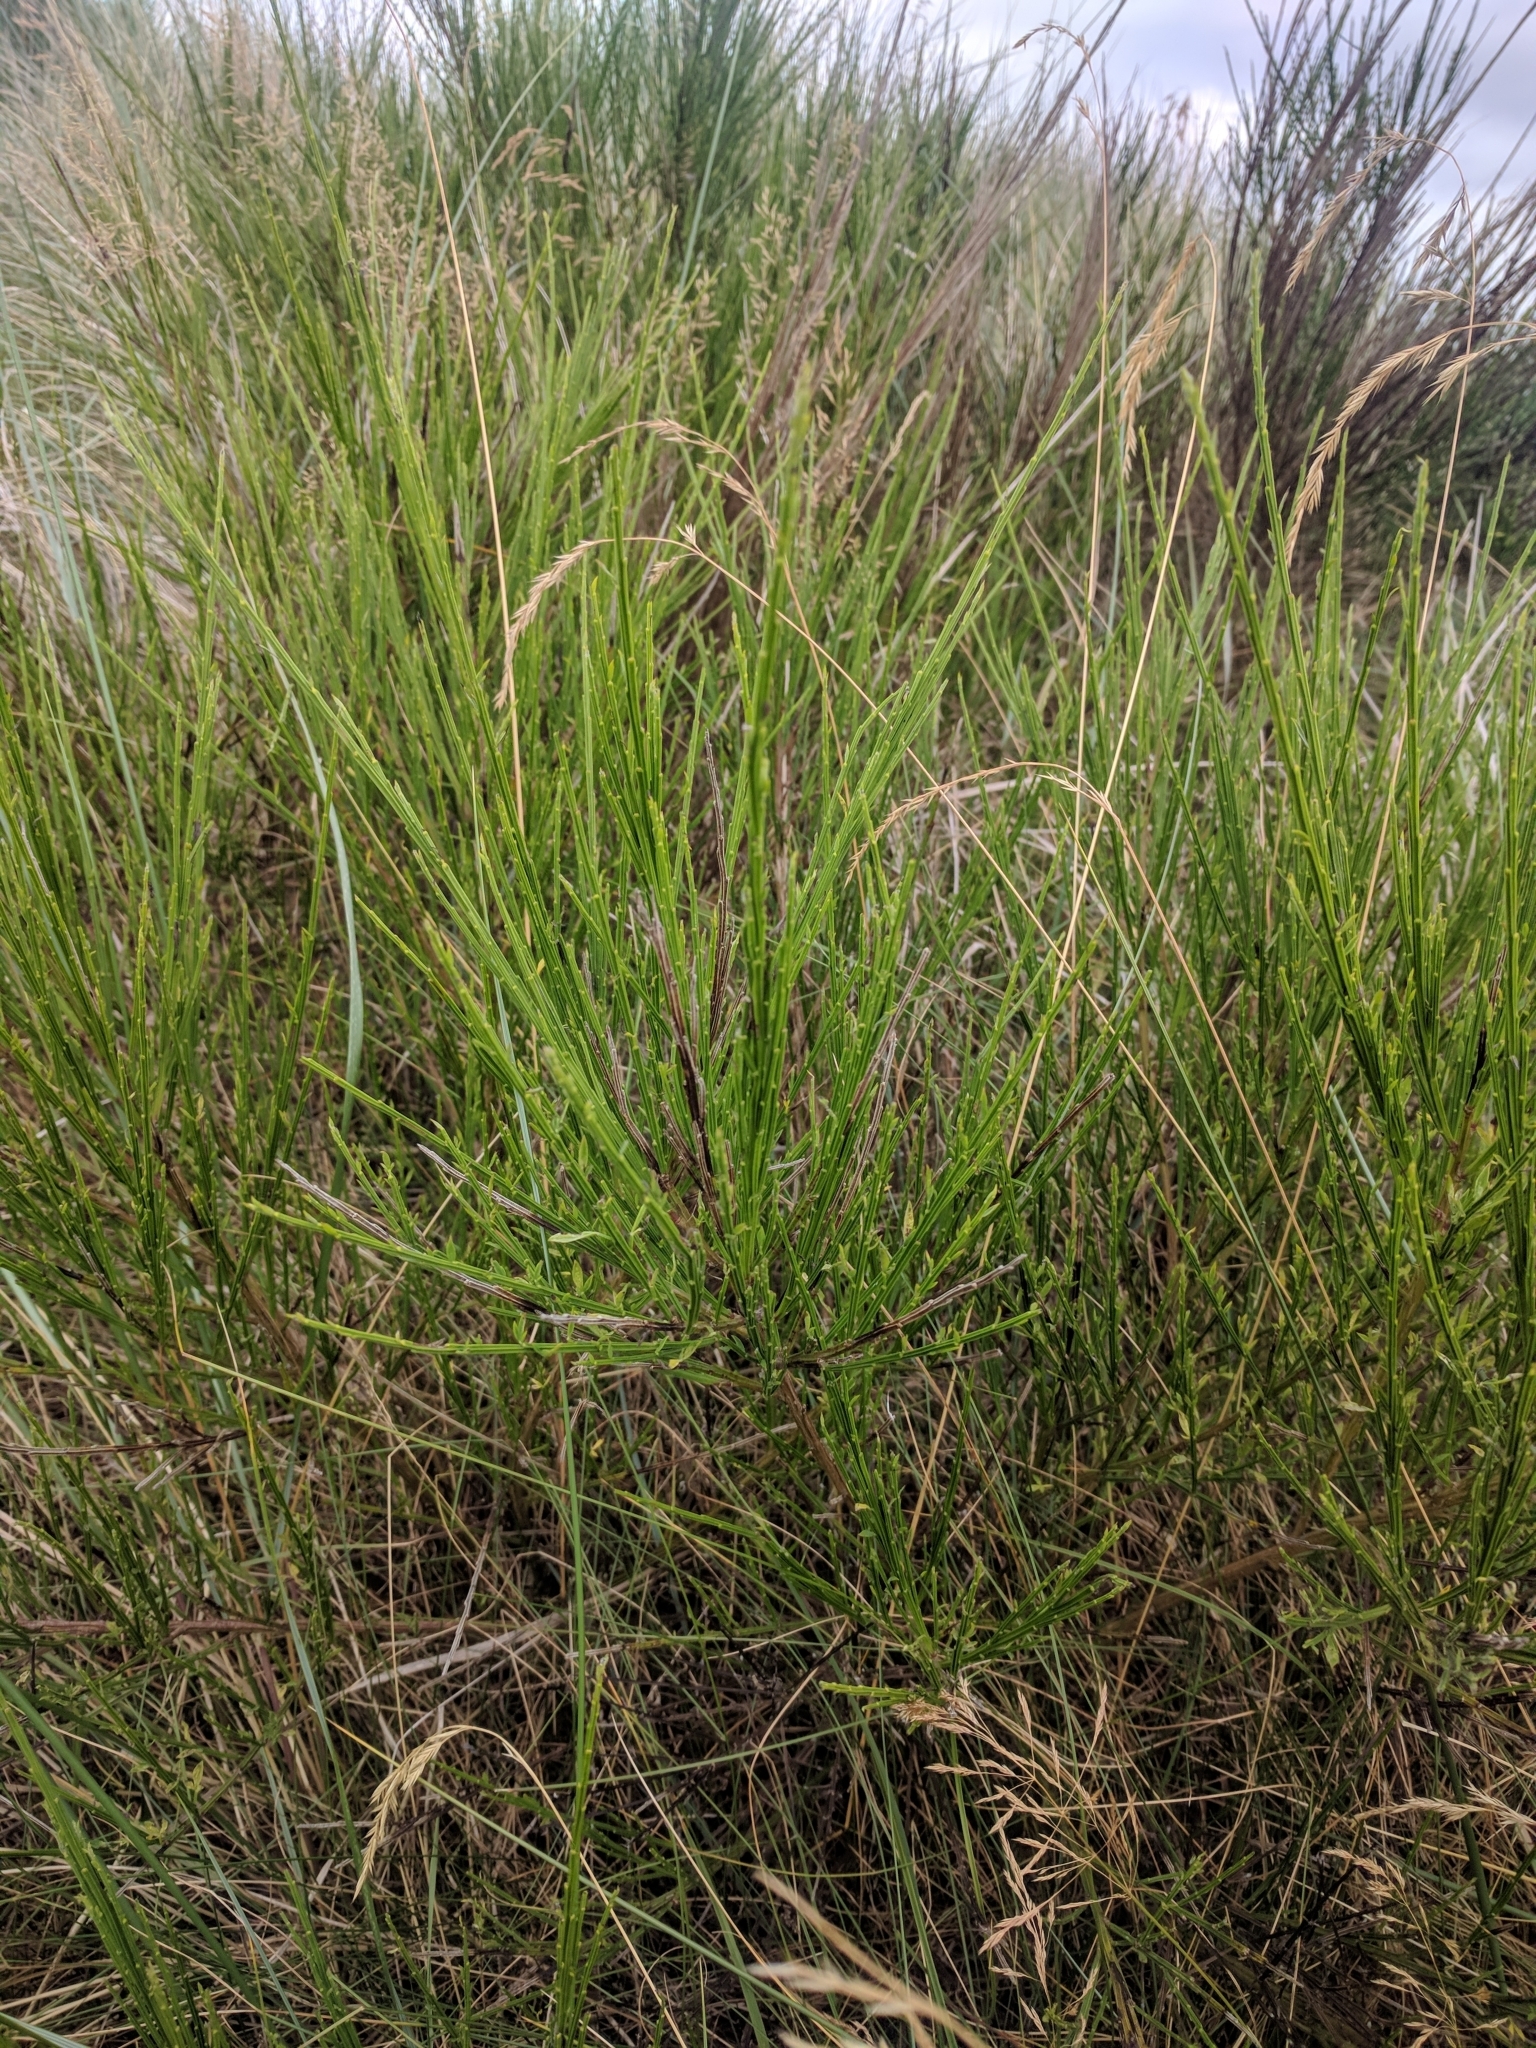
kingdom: Plantae
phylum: Tracheophyta
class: Magnoliopsida
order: Fabales
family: Fabaceae
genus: Cytisus
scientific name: Cytisus scoparius
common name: Scotch broom
